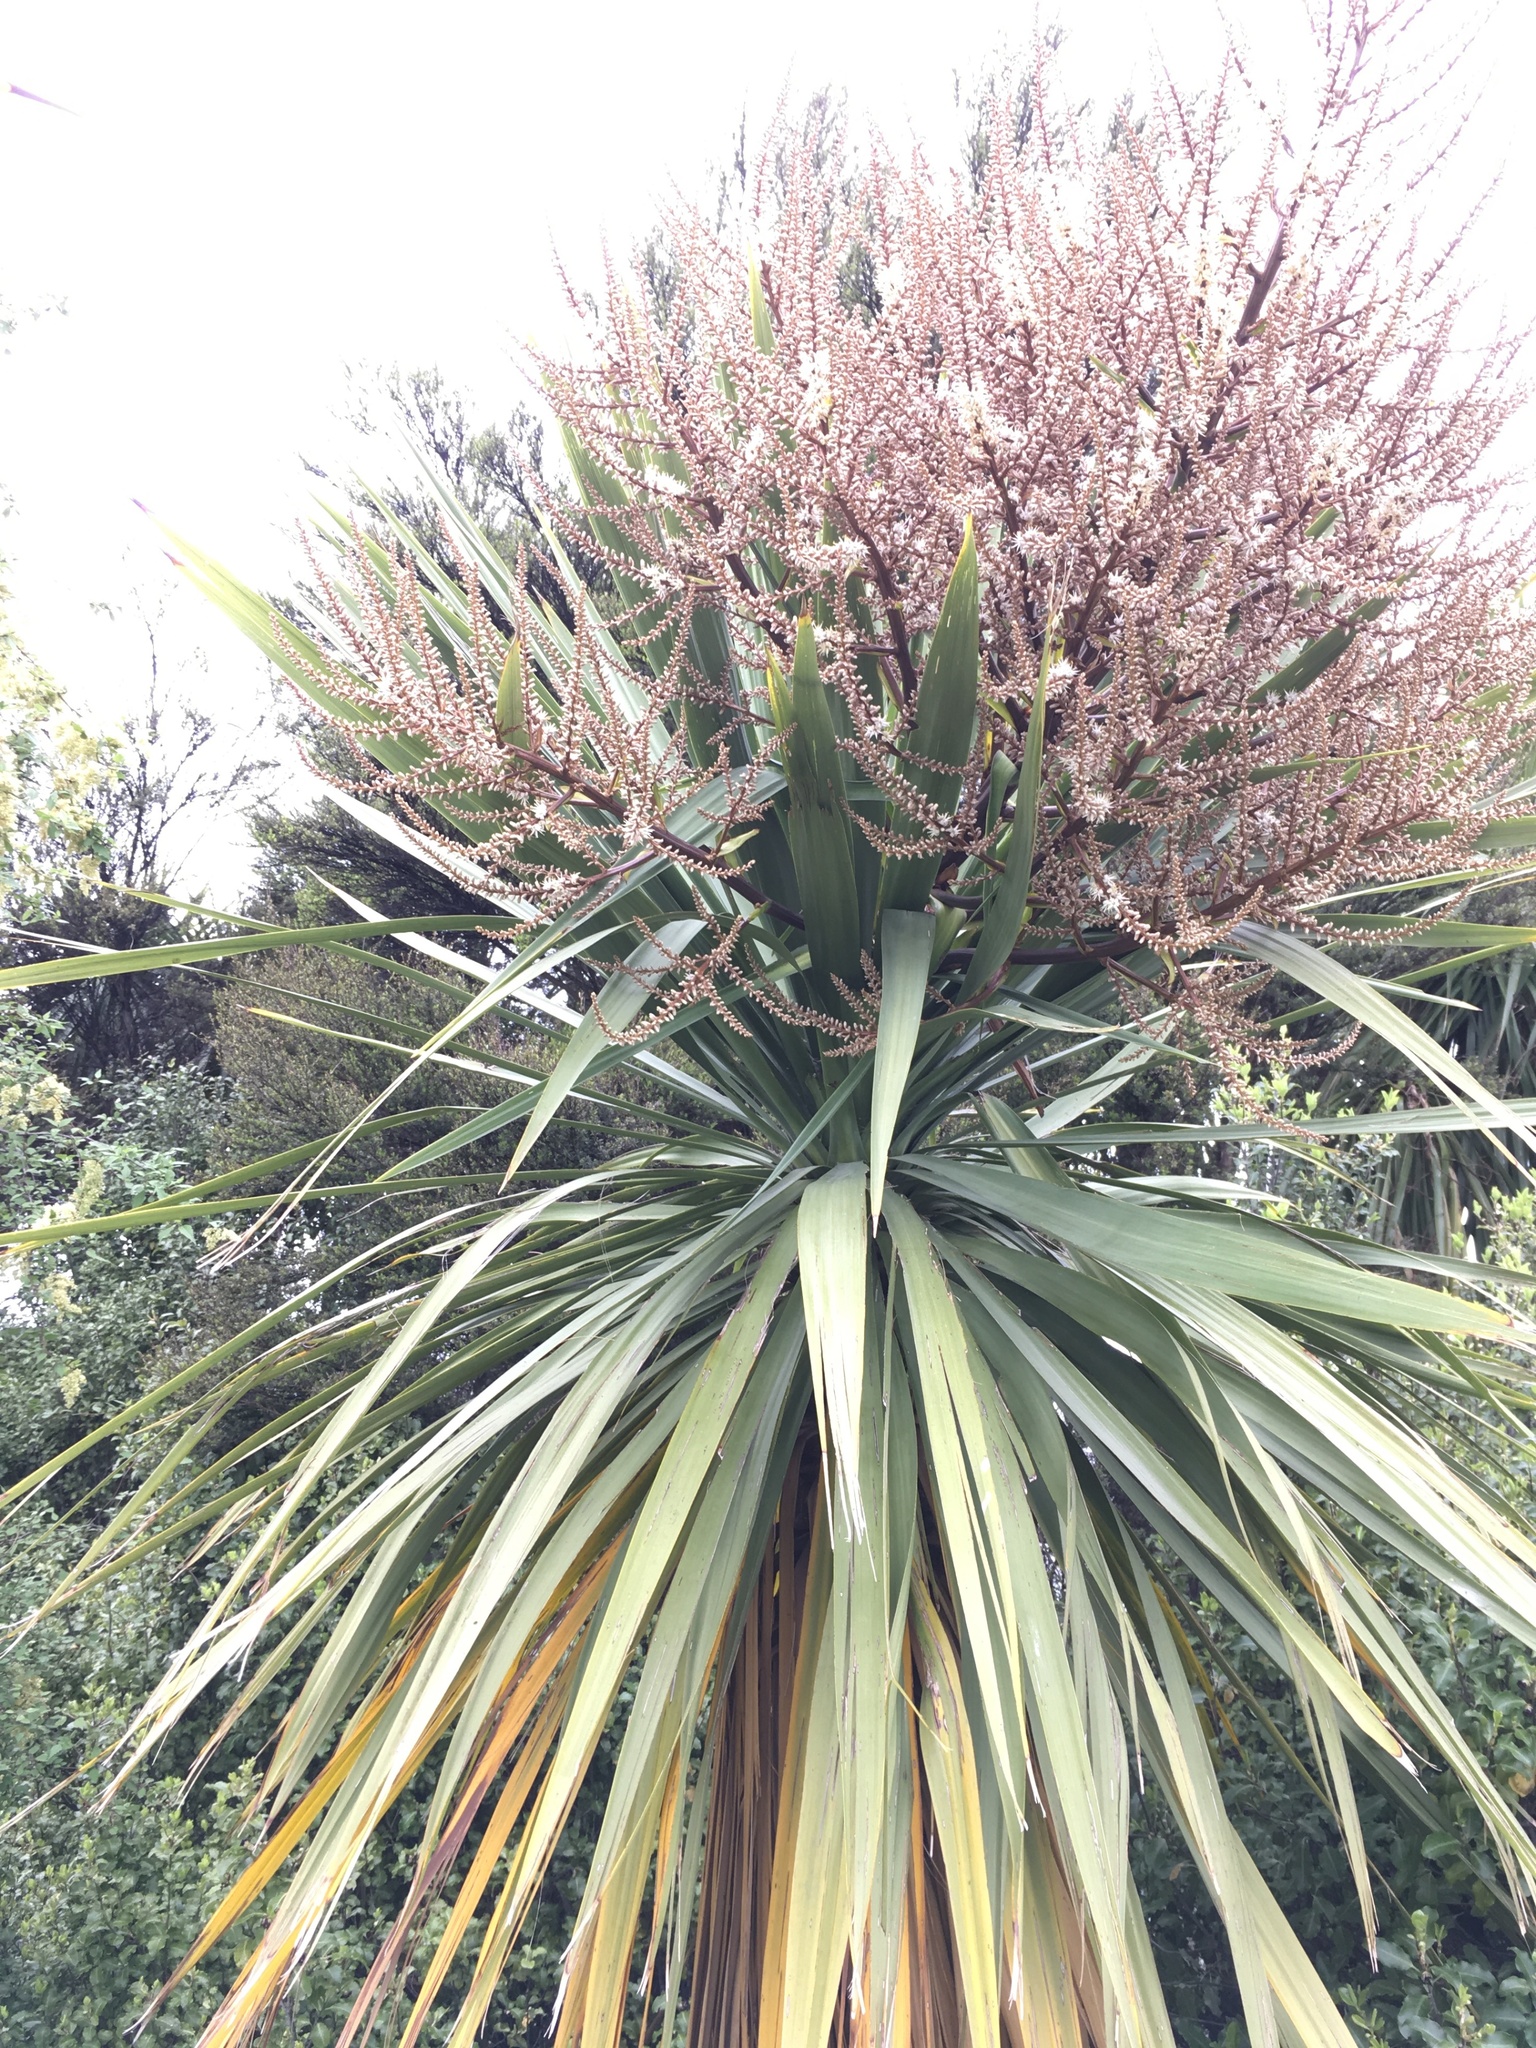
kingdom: Plantae
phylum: Tracheophyta
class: Liliopsida
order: Asparagales
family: Asparagaceae
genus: Cordyline
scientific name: Cordyline australis
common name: Cabbage-palm
